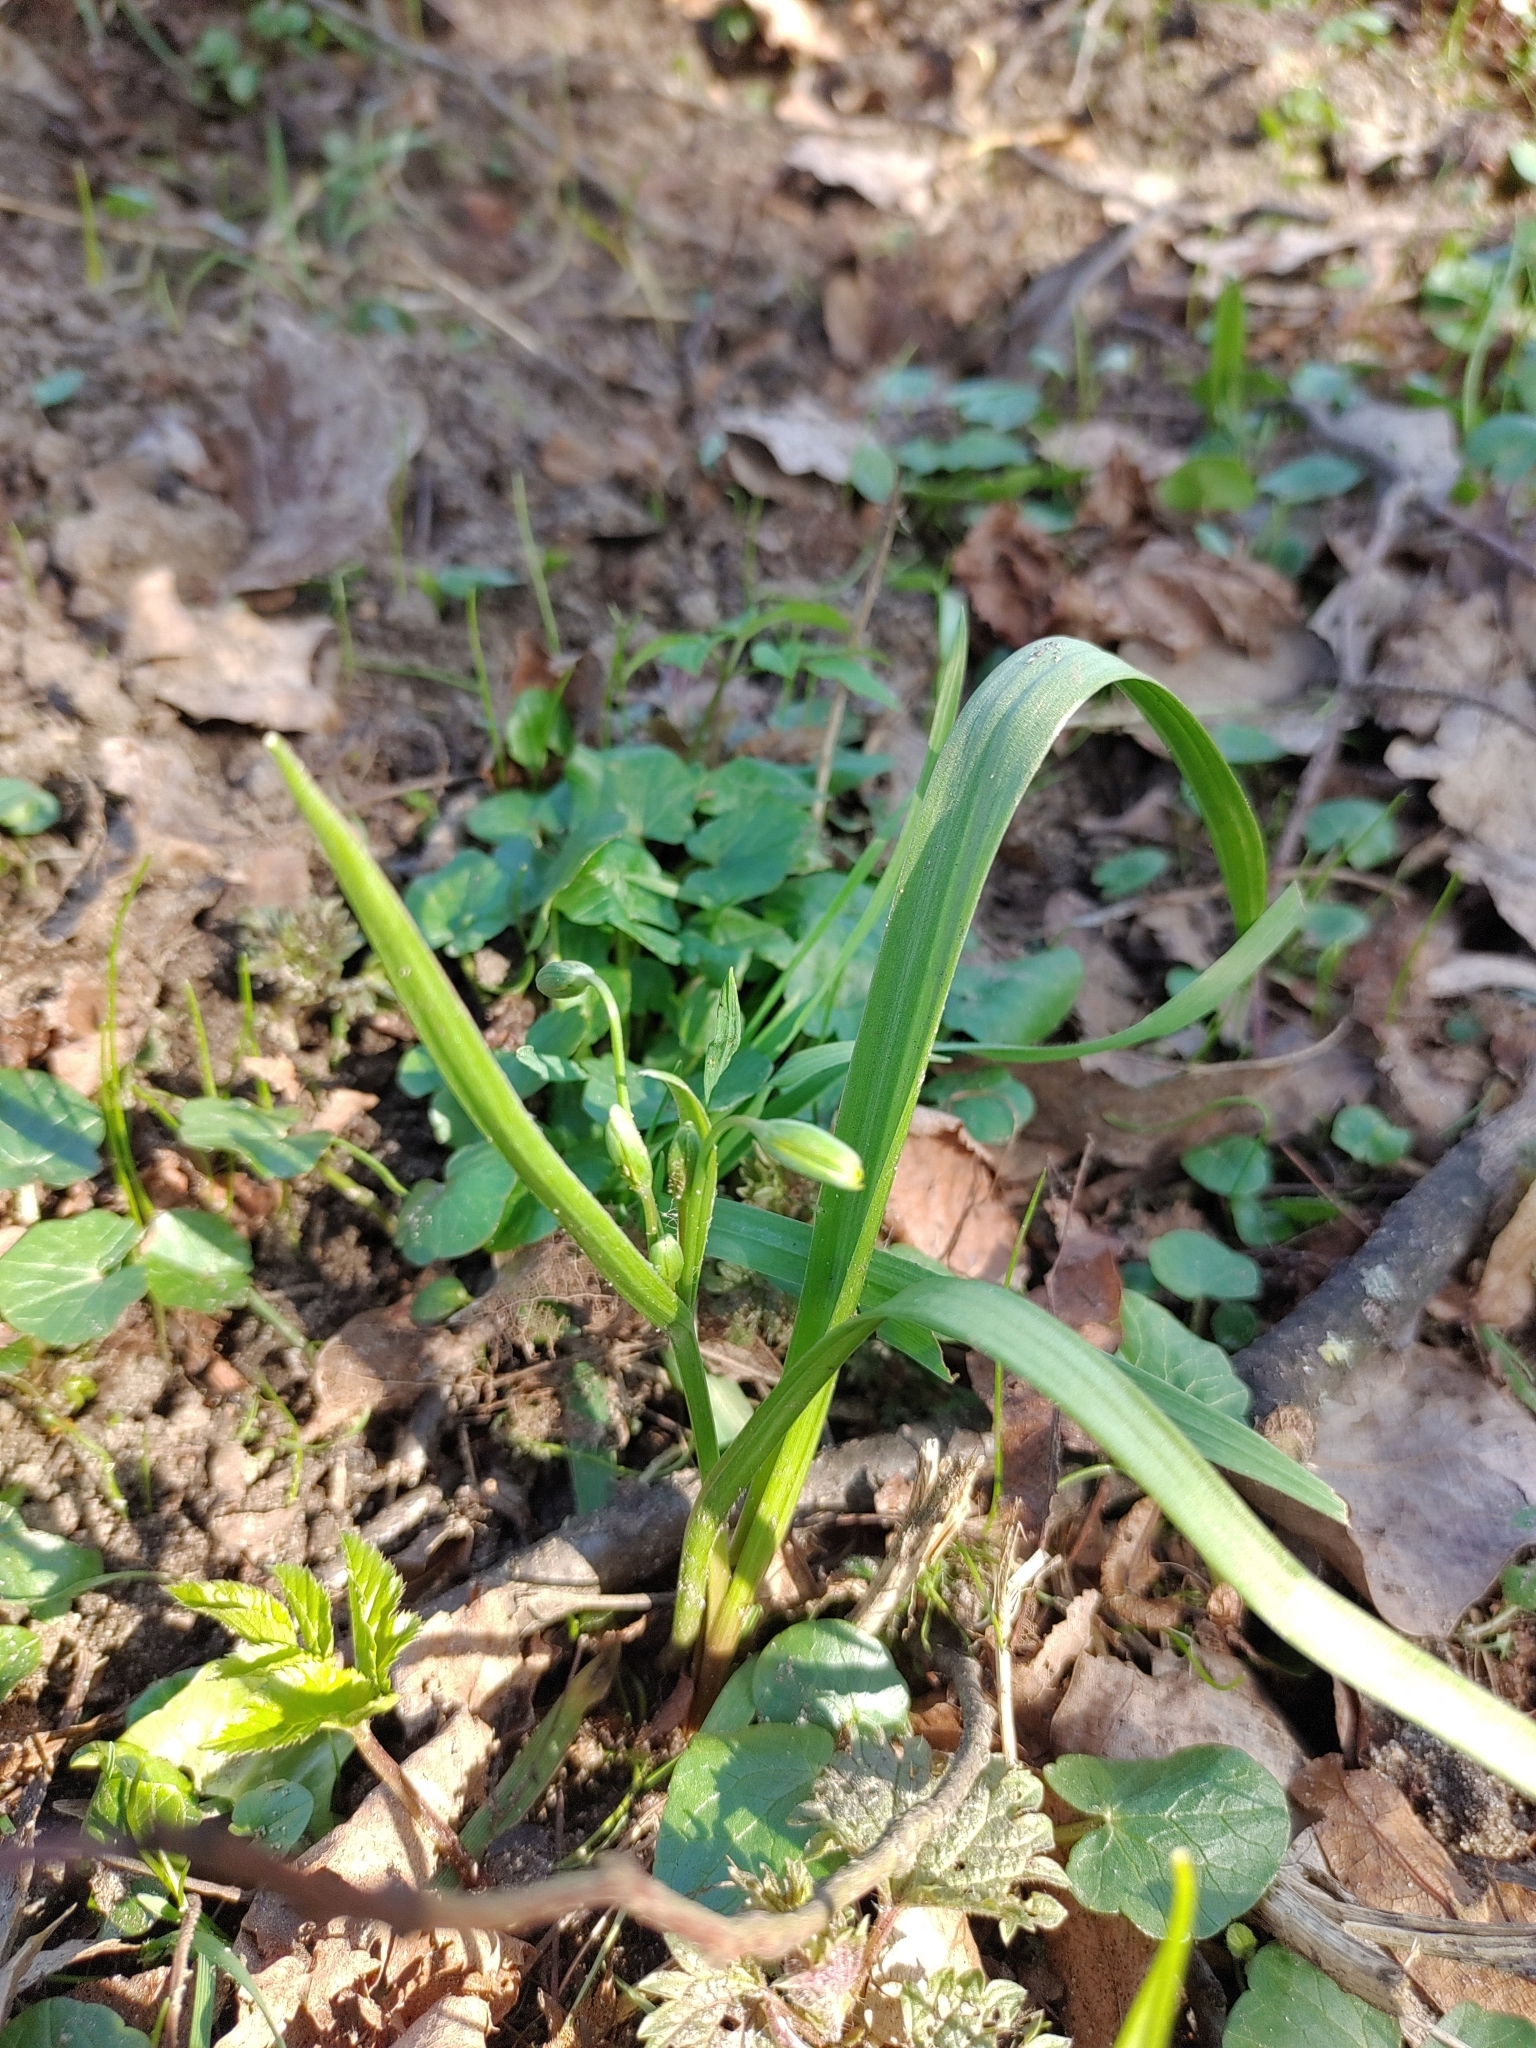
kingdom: Plantae
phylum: Tracheophyta
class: Liliopsida
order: Liliales
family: Liliaceae
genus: Gagea
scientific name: Gagea lutea
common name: Yellow star-of-bethlehem
